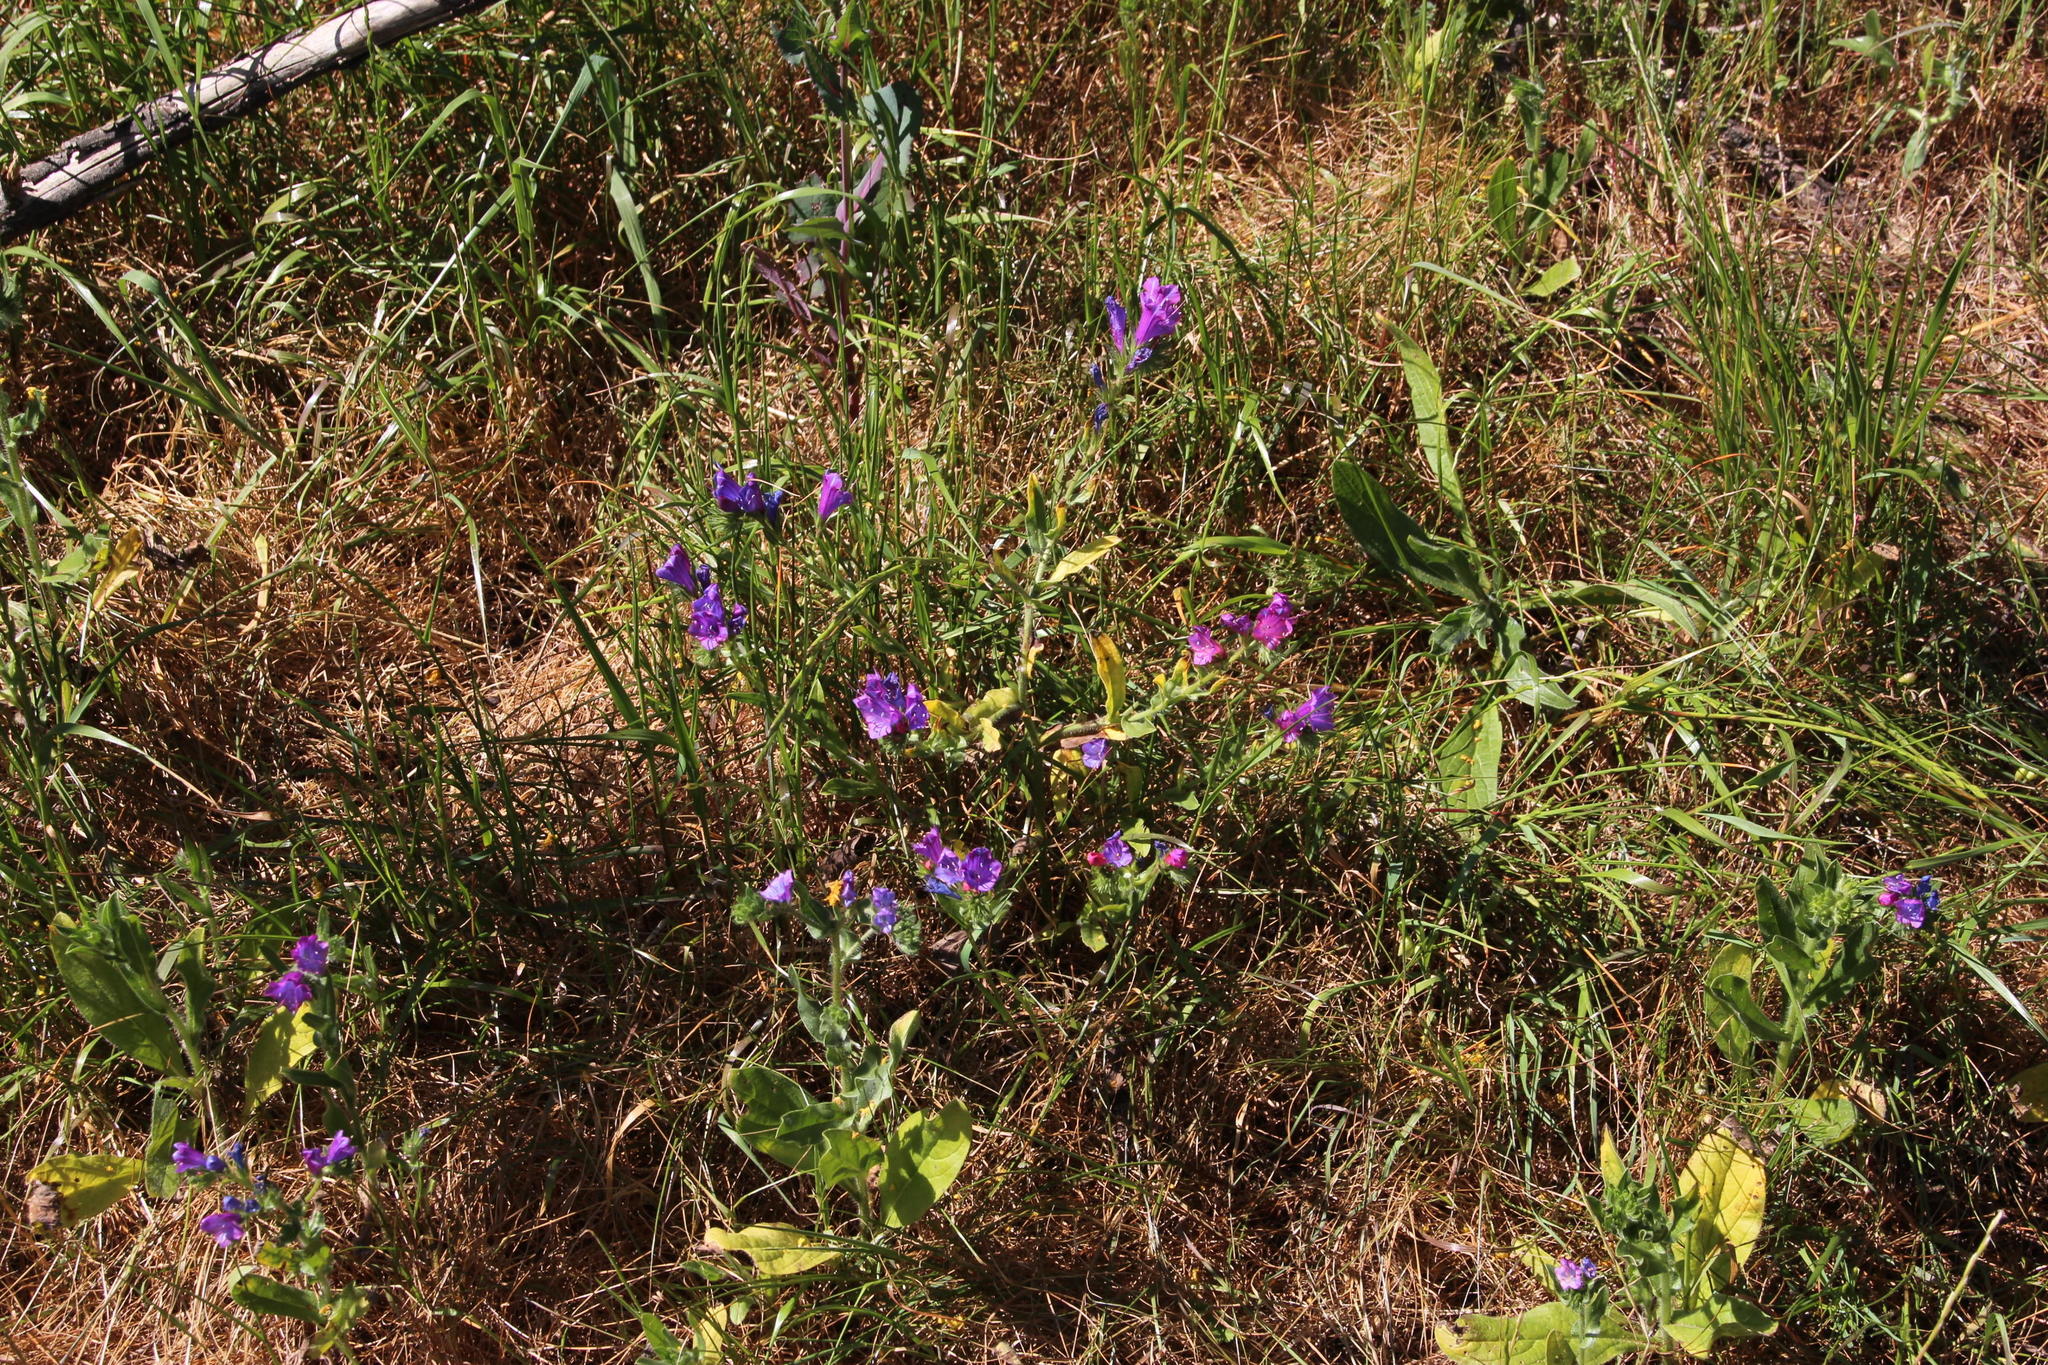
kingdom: Plantae
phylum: Tracheophyta
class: Magnoliopsida
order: Boraginales
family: Boraginaceae
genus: Echium
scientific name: Echium plantagineum
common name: Purple viper's-bugloss
